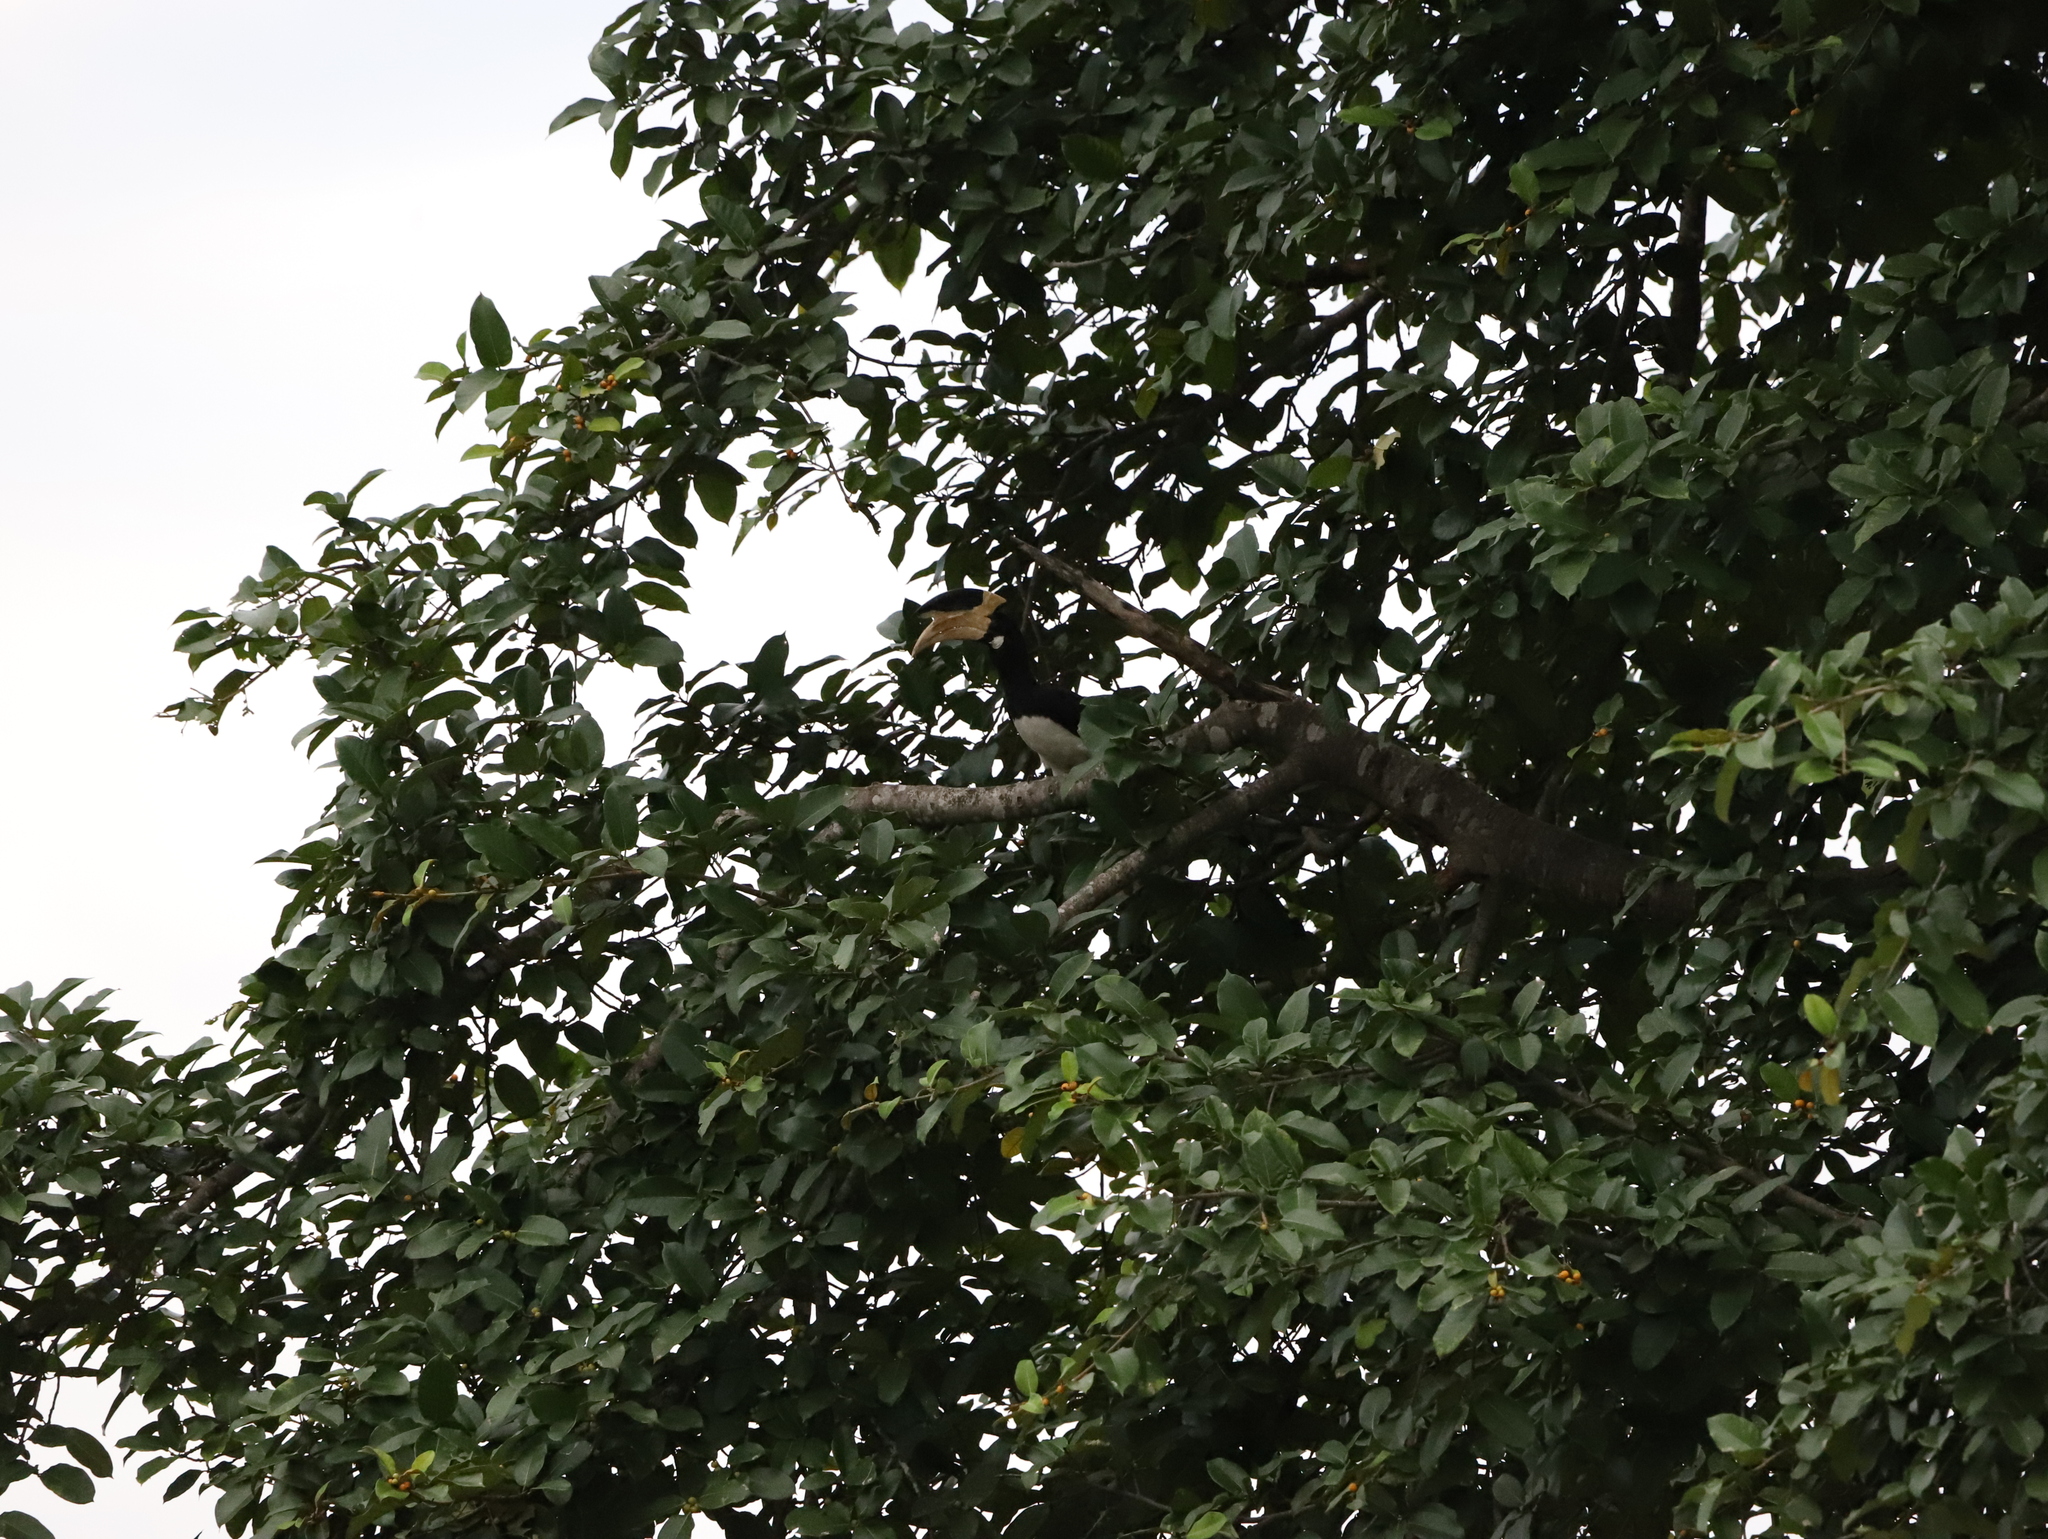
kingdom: Animalia
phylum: Chordata
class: Aves
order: Bucerotiformes
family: Bucerotidae
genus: Anthracoceros
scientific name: Anthracoceros coronatus
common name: Malabar pied hornbill
